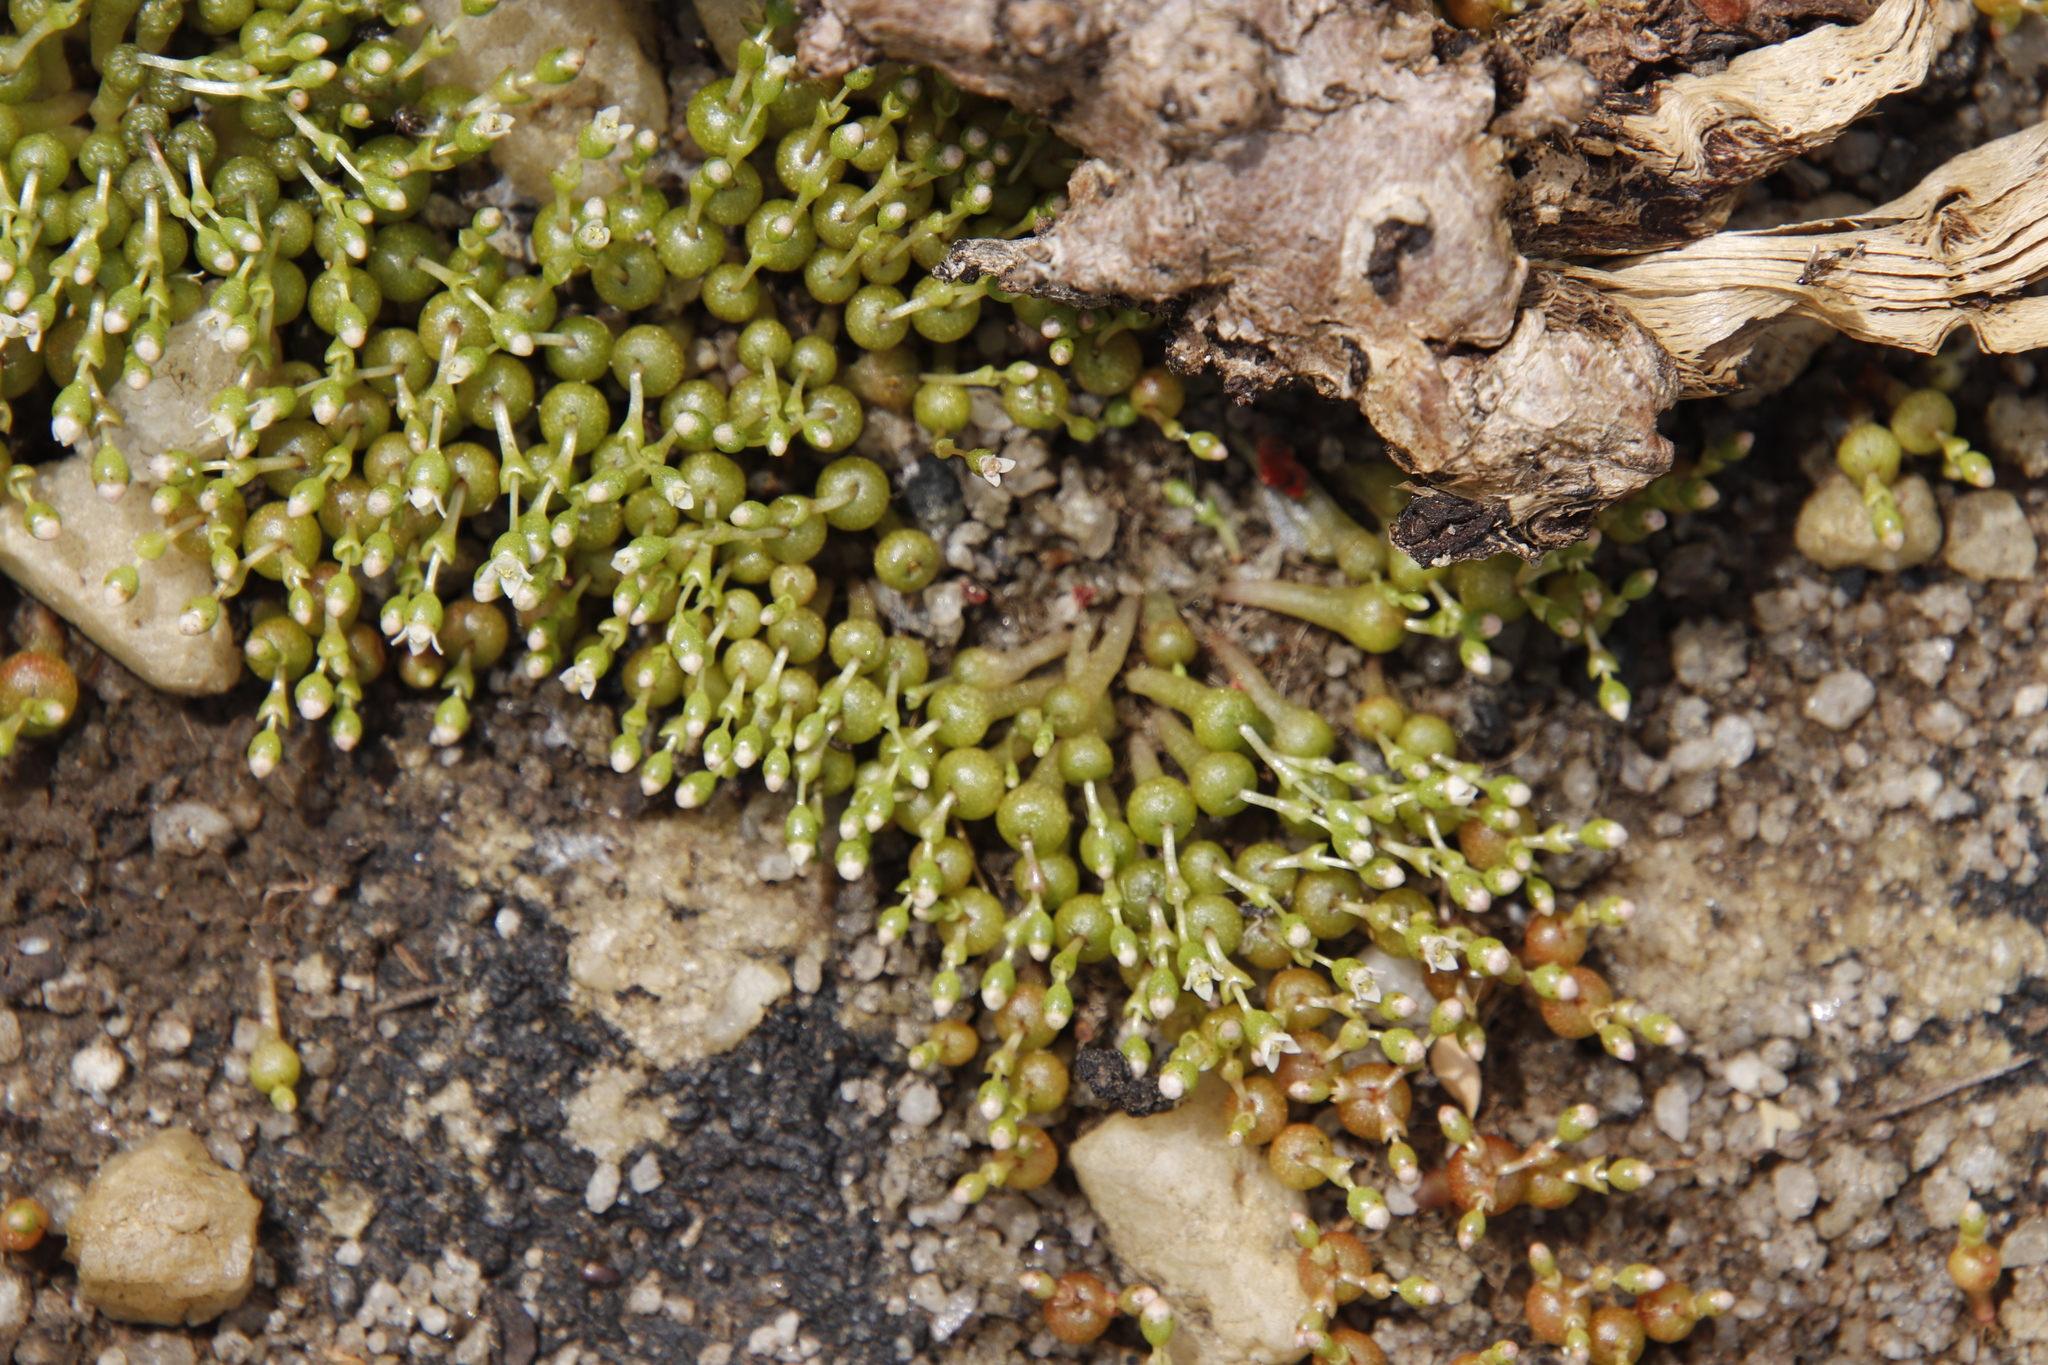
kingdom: Plantae
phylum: Tracheophyta
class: Magnoliopsida
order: Saxifragales
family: Crassulaceae
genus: Crassula
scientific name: Crassula aphylla
